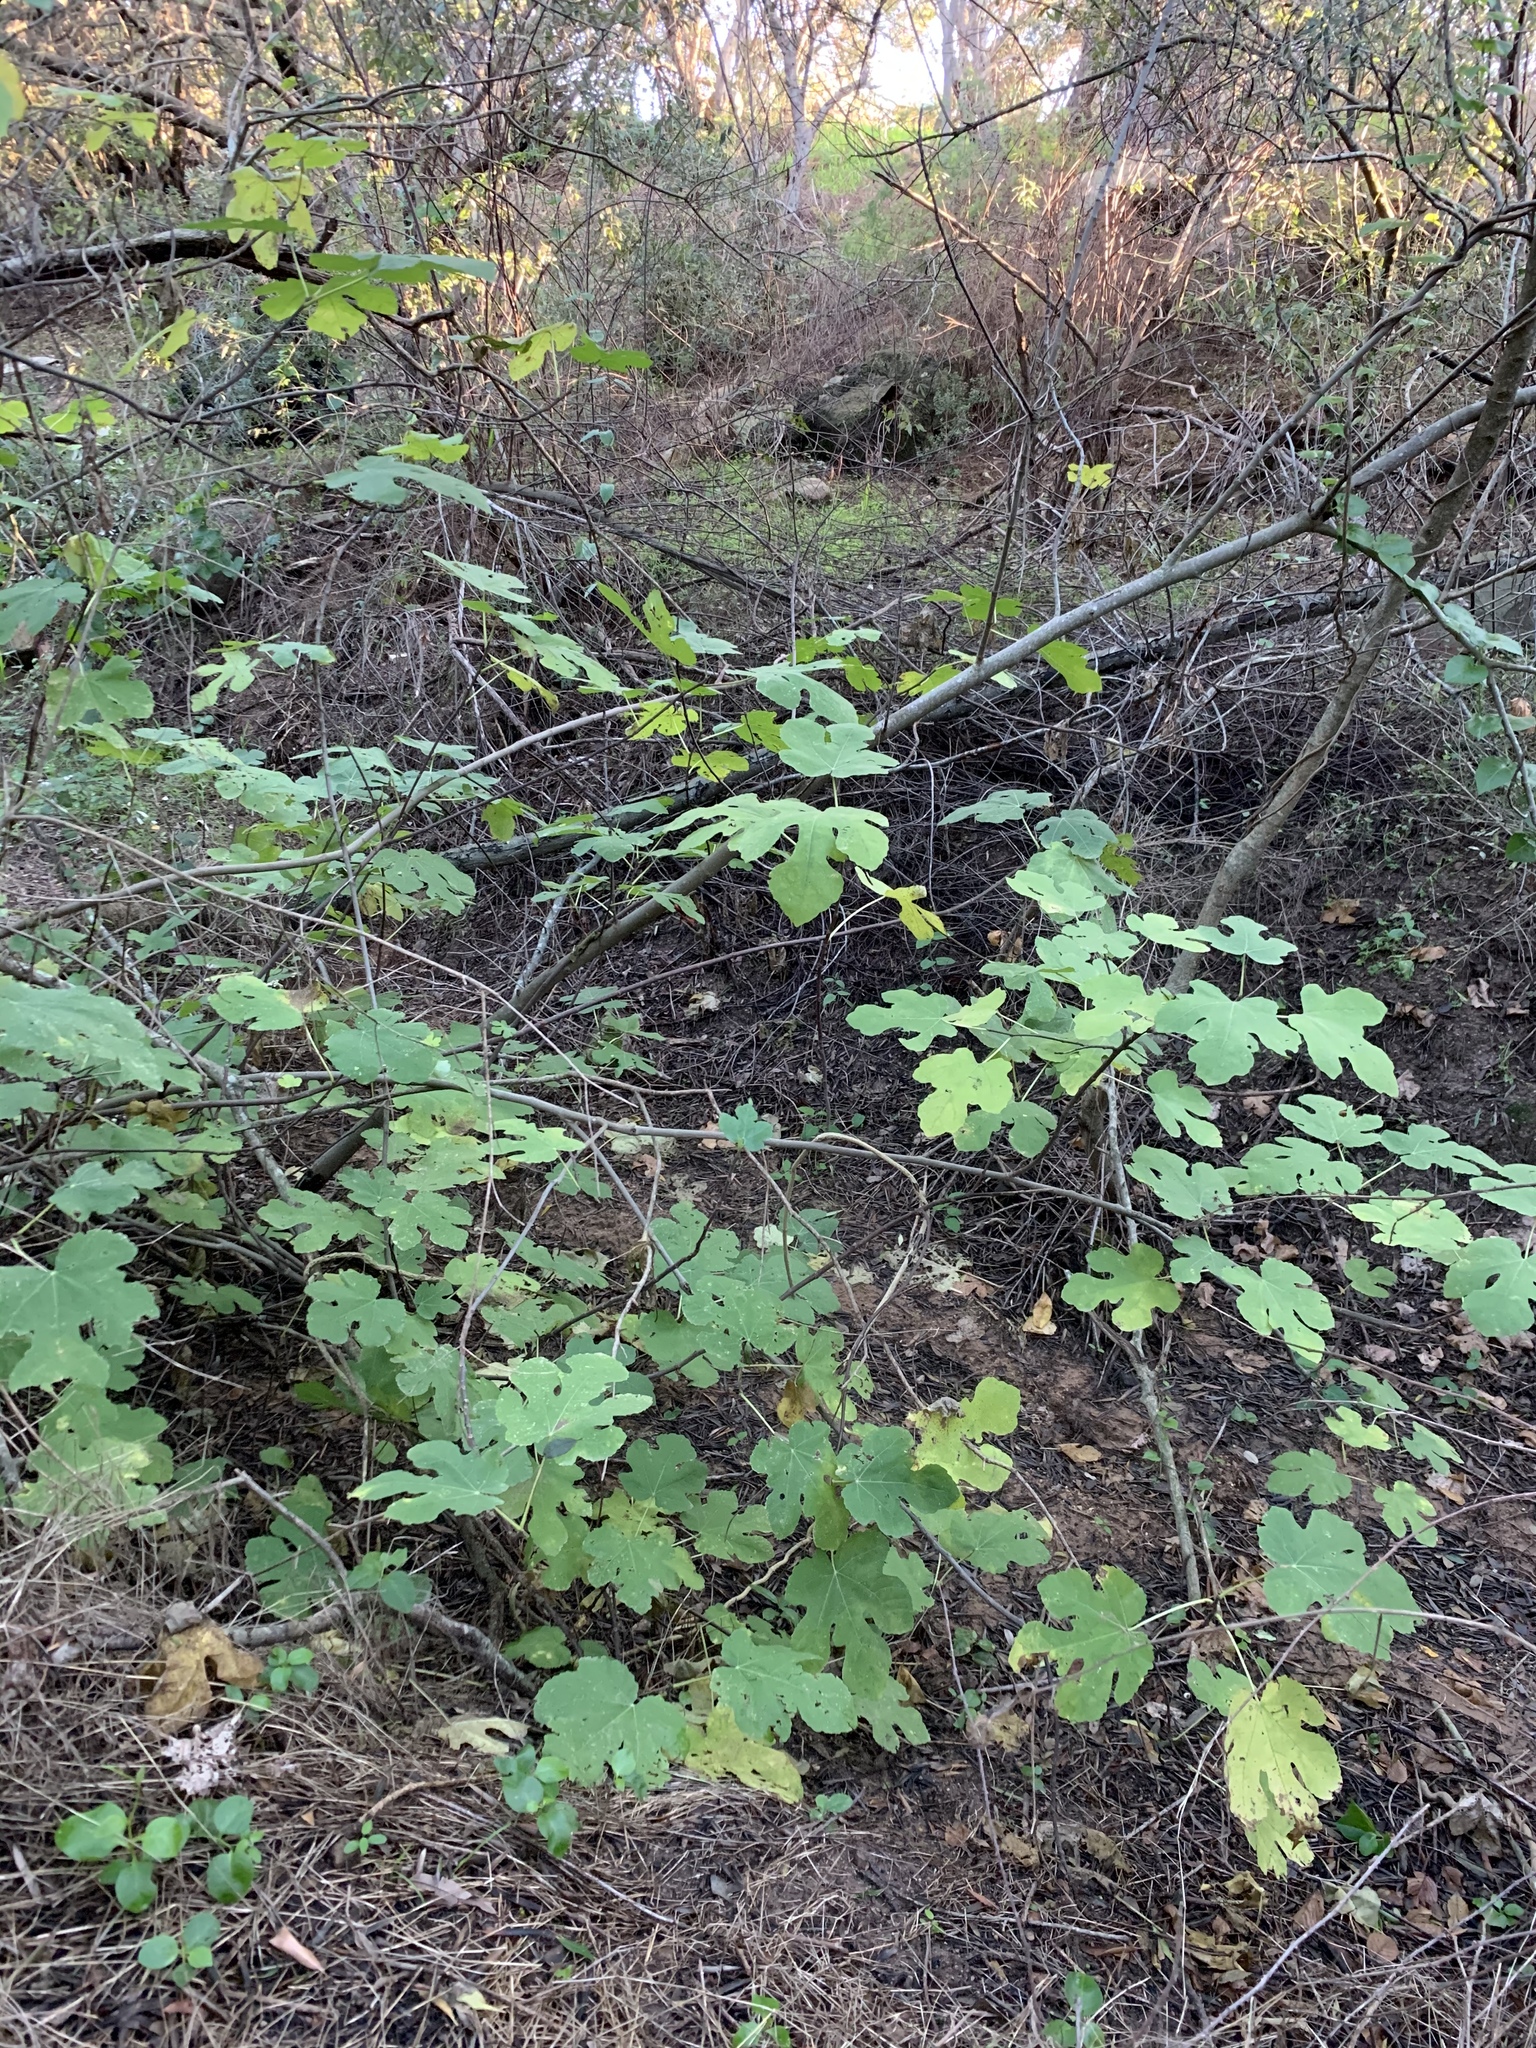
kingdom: Plantae
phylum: Tracheophyta
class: Magnoliopsida
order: Rosales
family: Moraceae
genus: Ficus
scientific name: Ficus carica
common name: Fig
